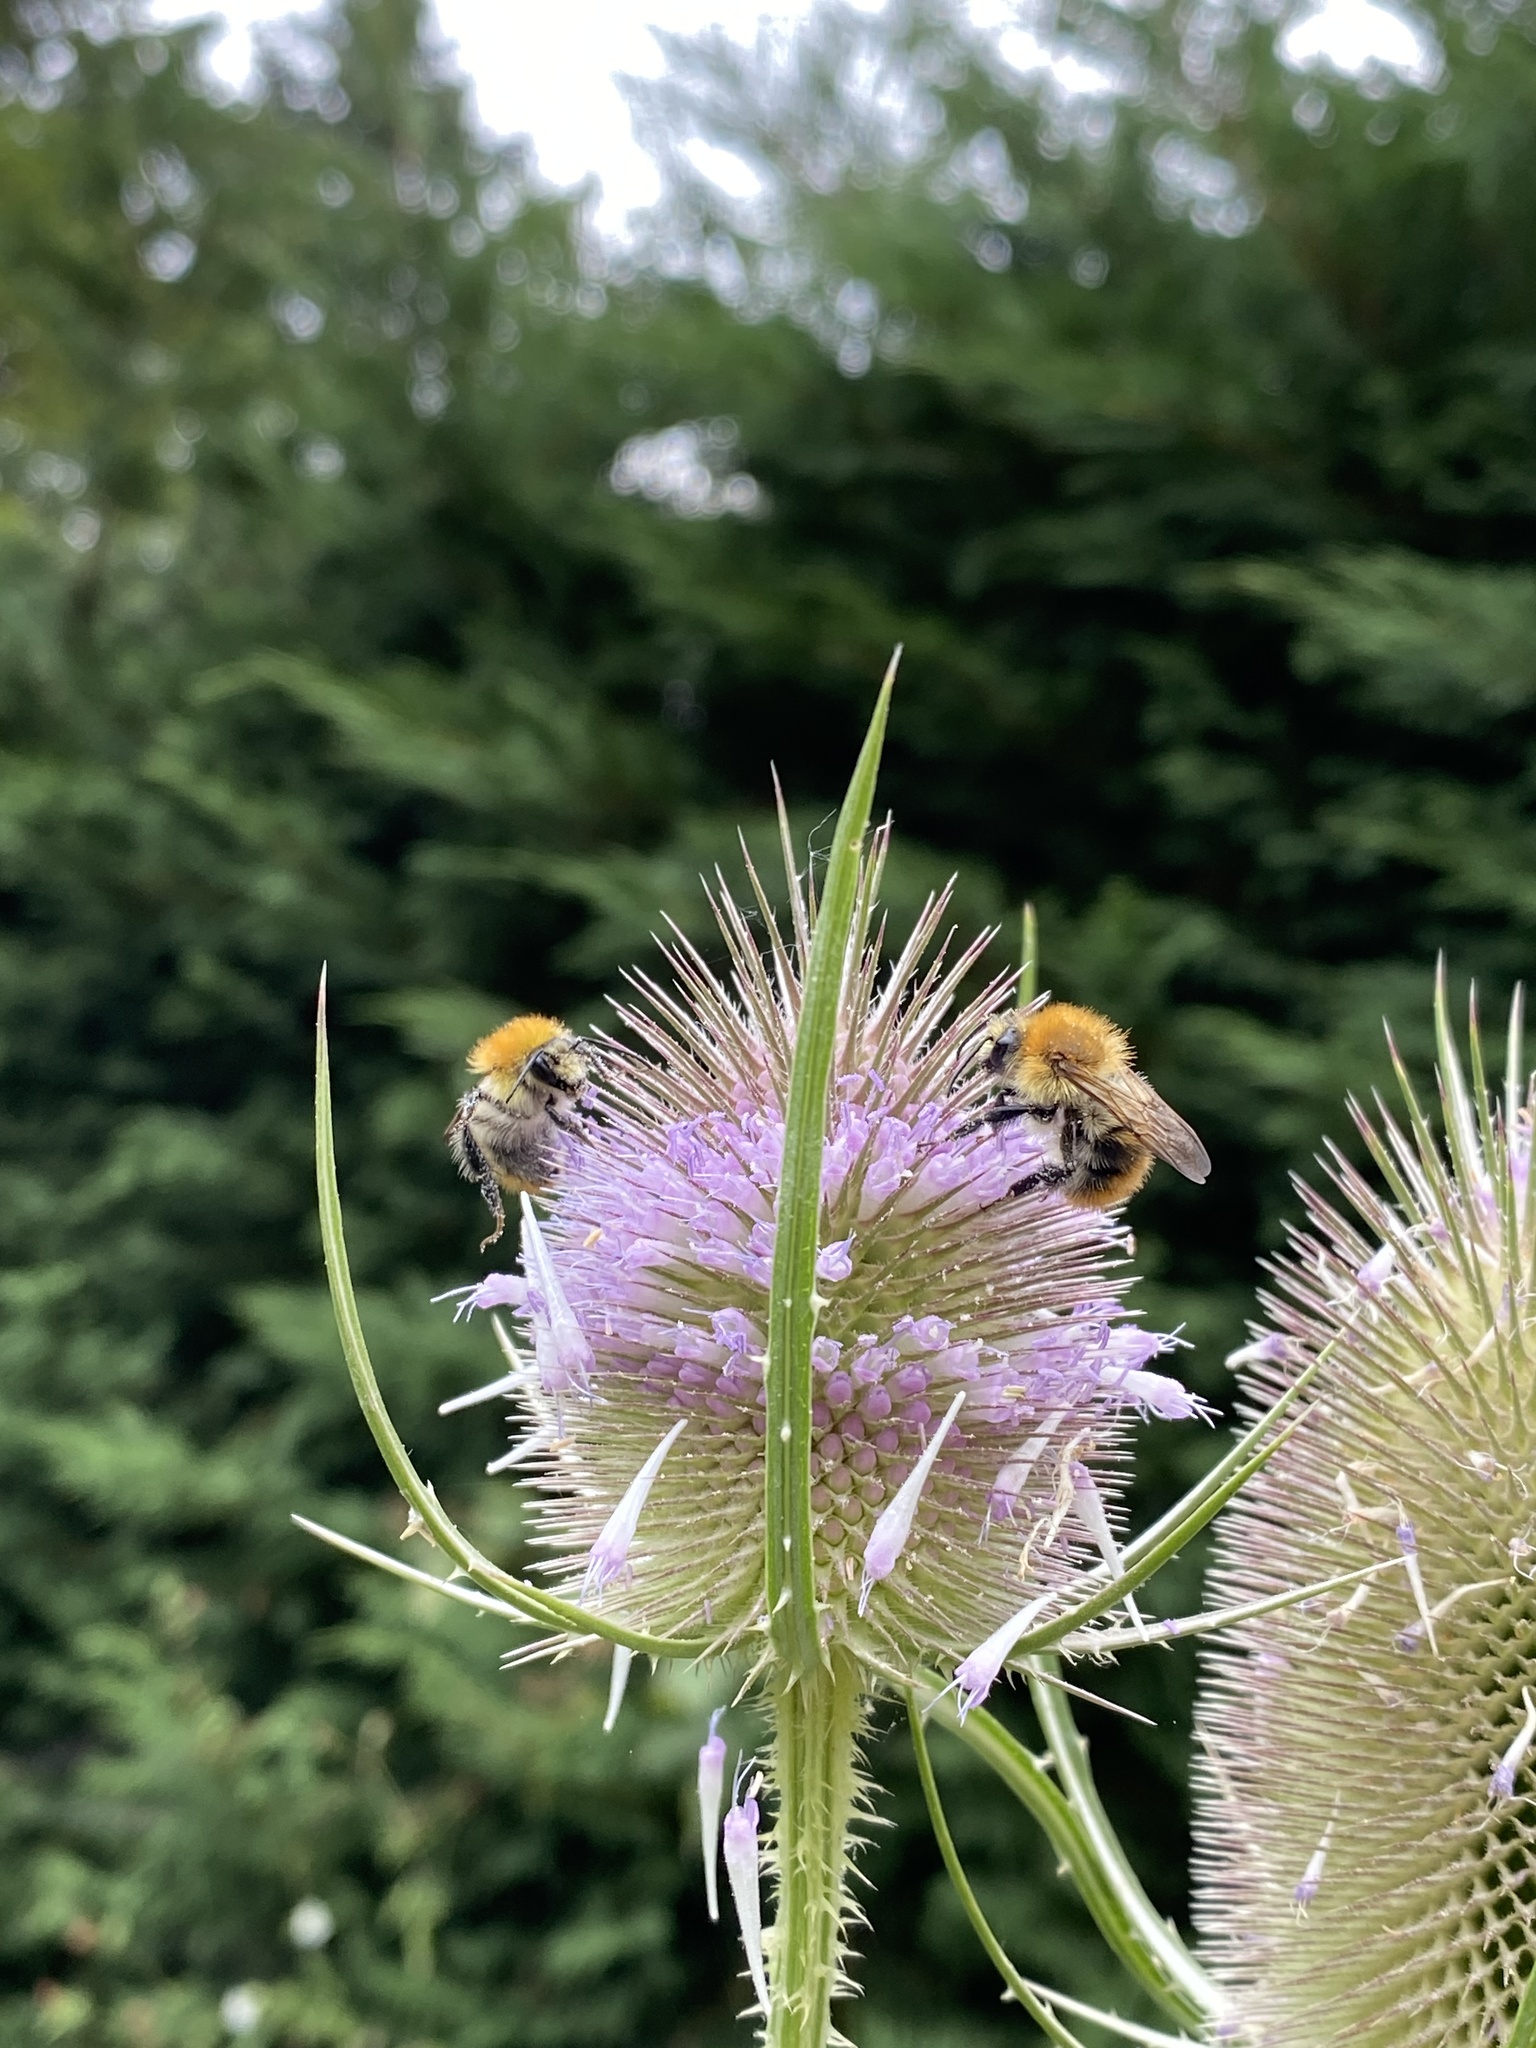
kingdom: Animalia
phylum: Arthropoda
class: Insecta
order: Hymenoptera
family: Apidae
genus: Bombus
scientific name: Bombus pascuorum
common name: Common carder bee
